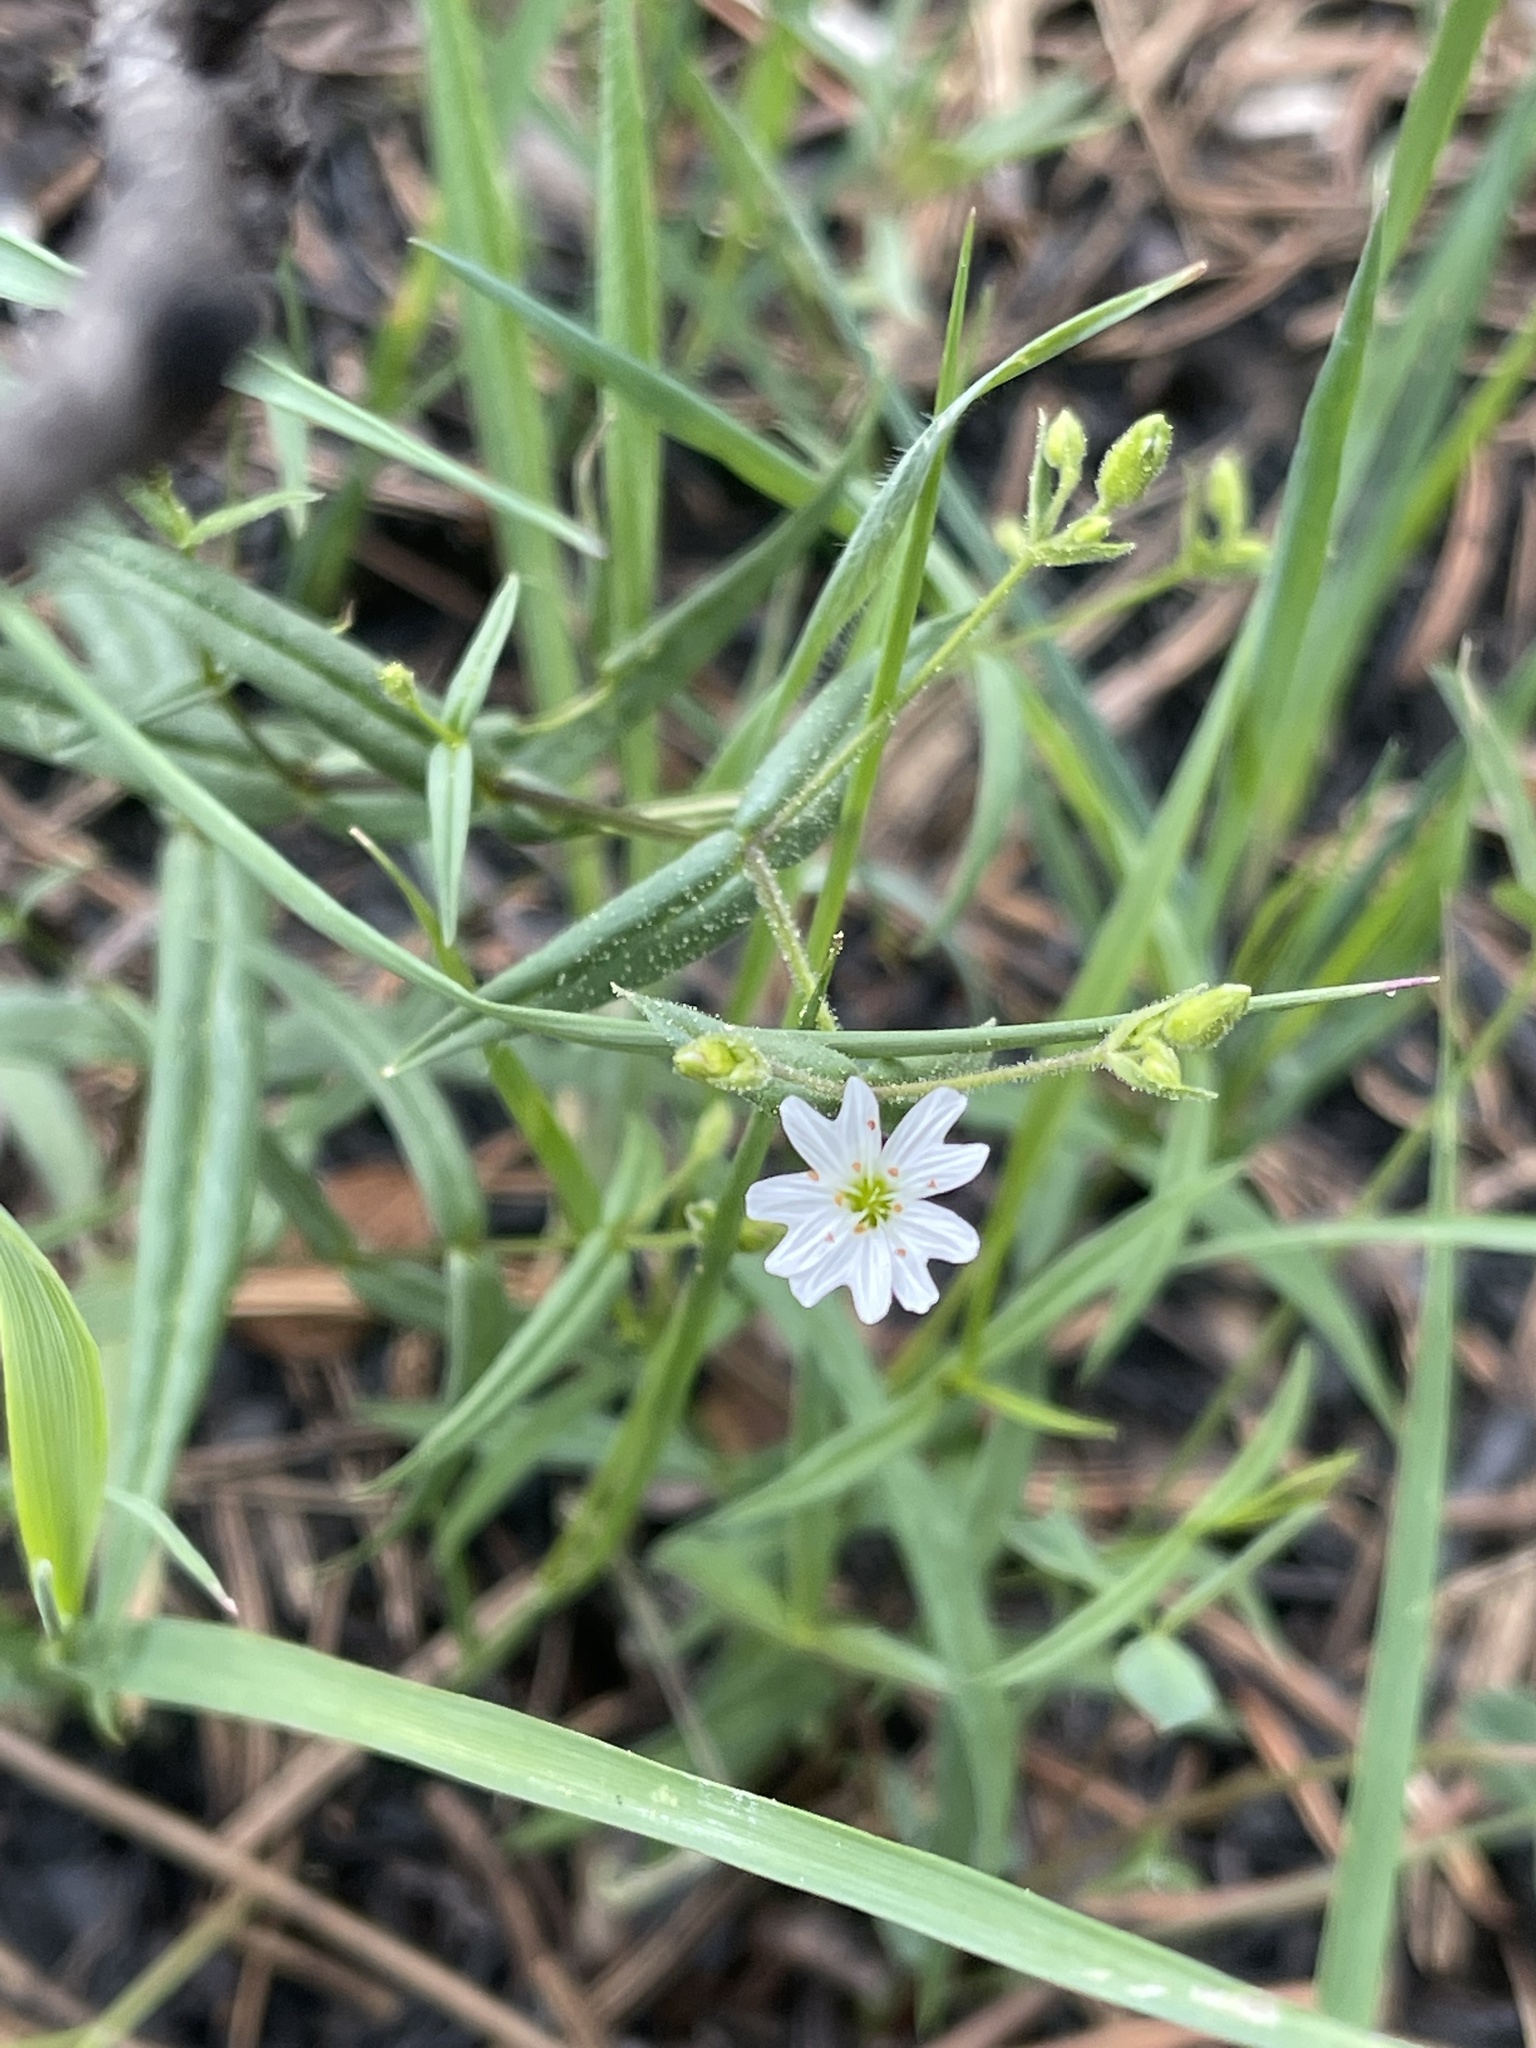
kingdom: Plantae
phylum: Tracheophyta
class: Magnoliopsida
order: Caryophyllales
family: Caryophyllaceae
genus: Schizotechium
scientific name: Schizotechium jamesianum
